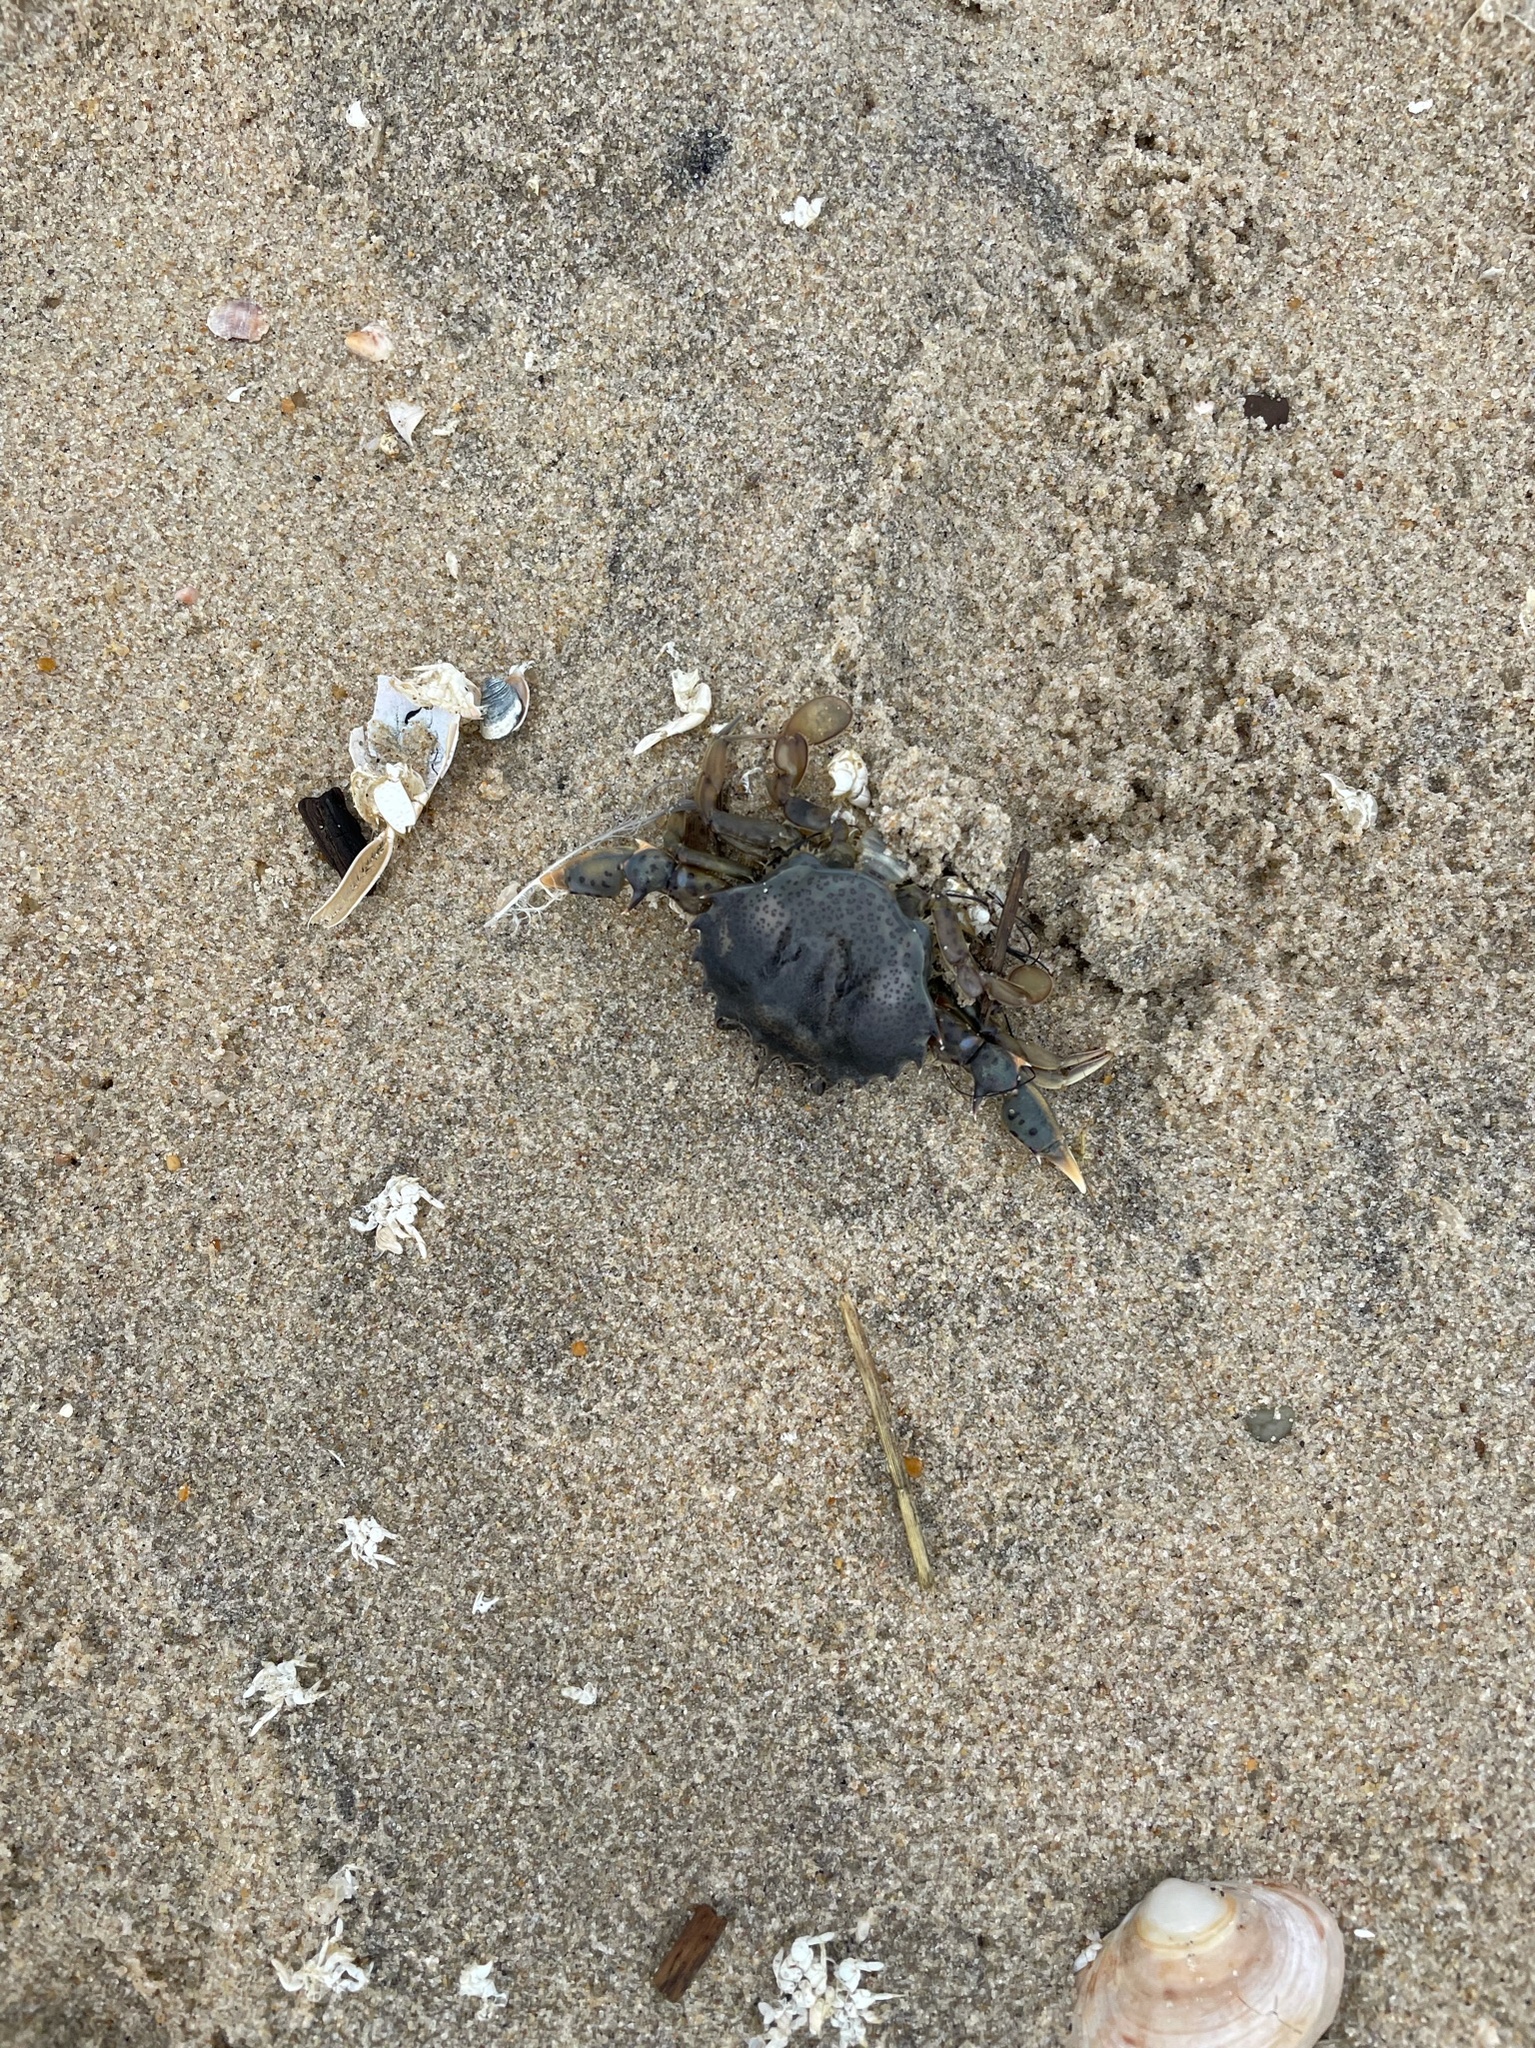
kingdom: Animalia
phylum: Arthropoda
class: Malacostraca
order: Decapoda
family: Ovalipidae
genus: Ovalipes
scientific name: Ovalipes ocellatus
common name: Lady crab
